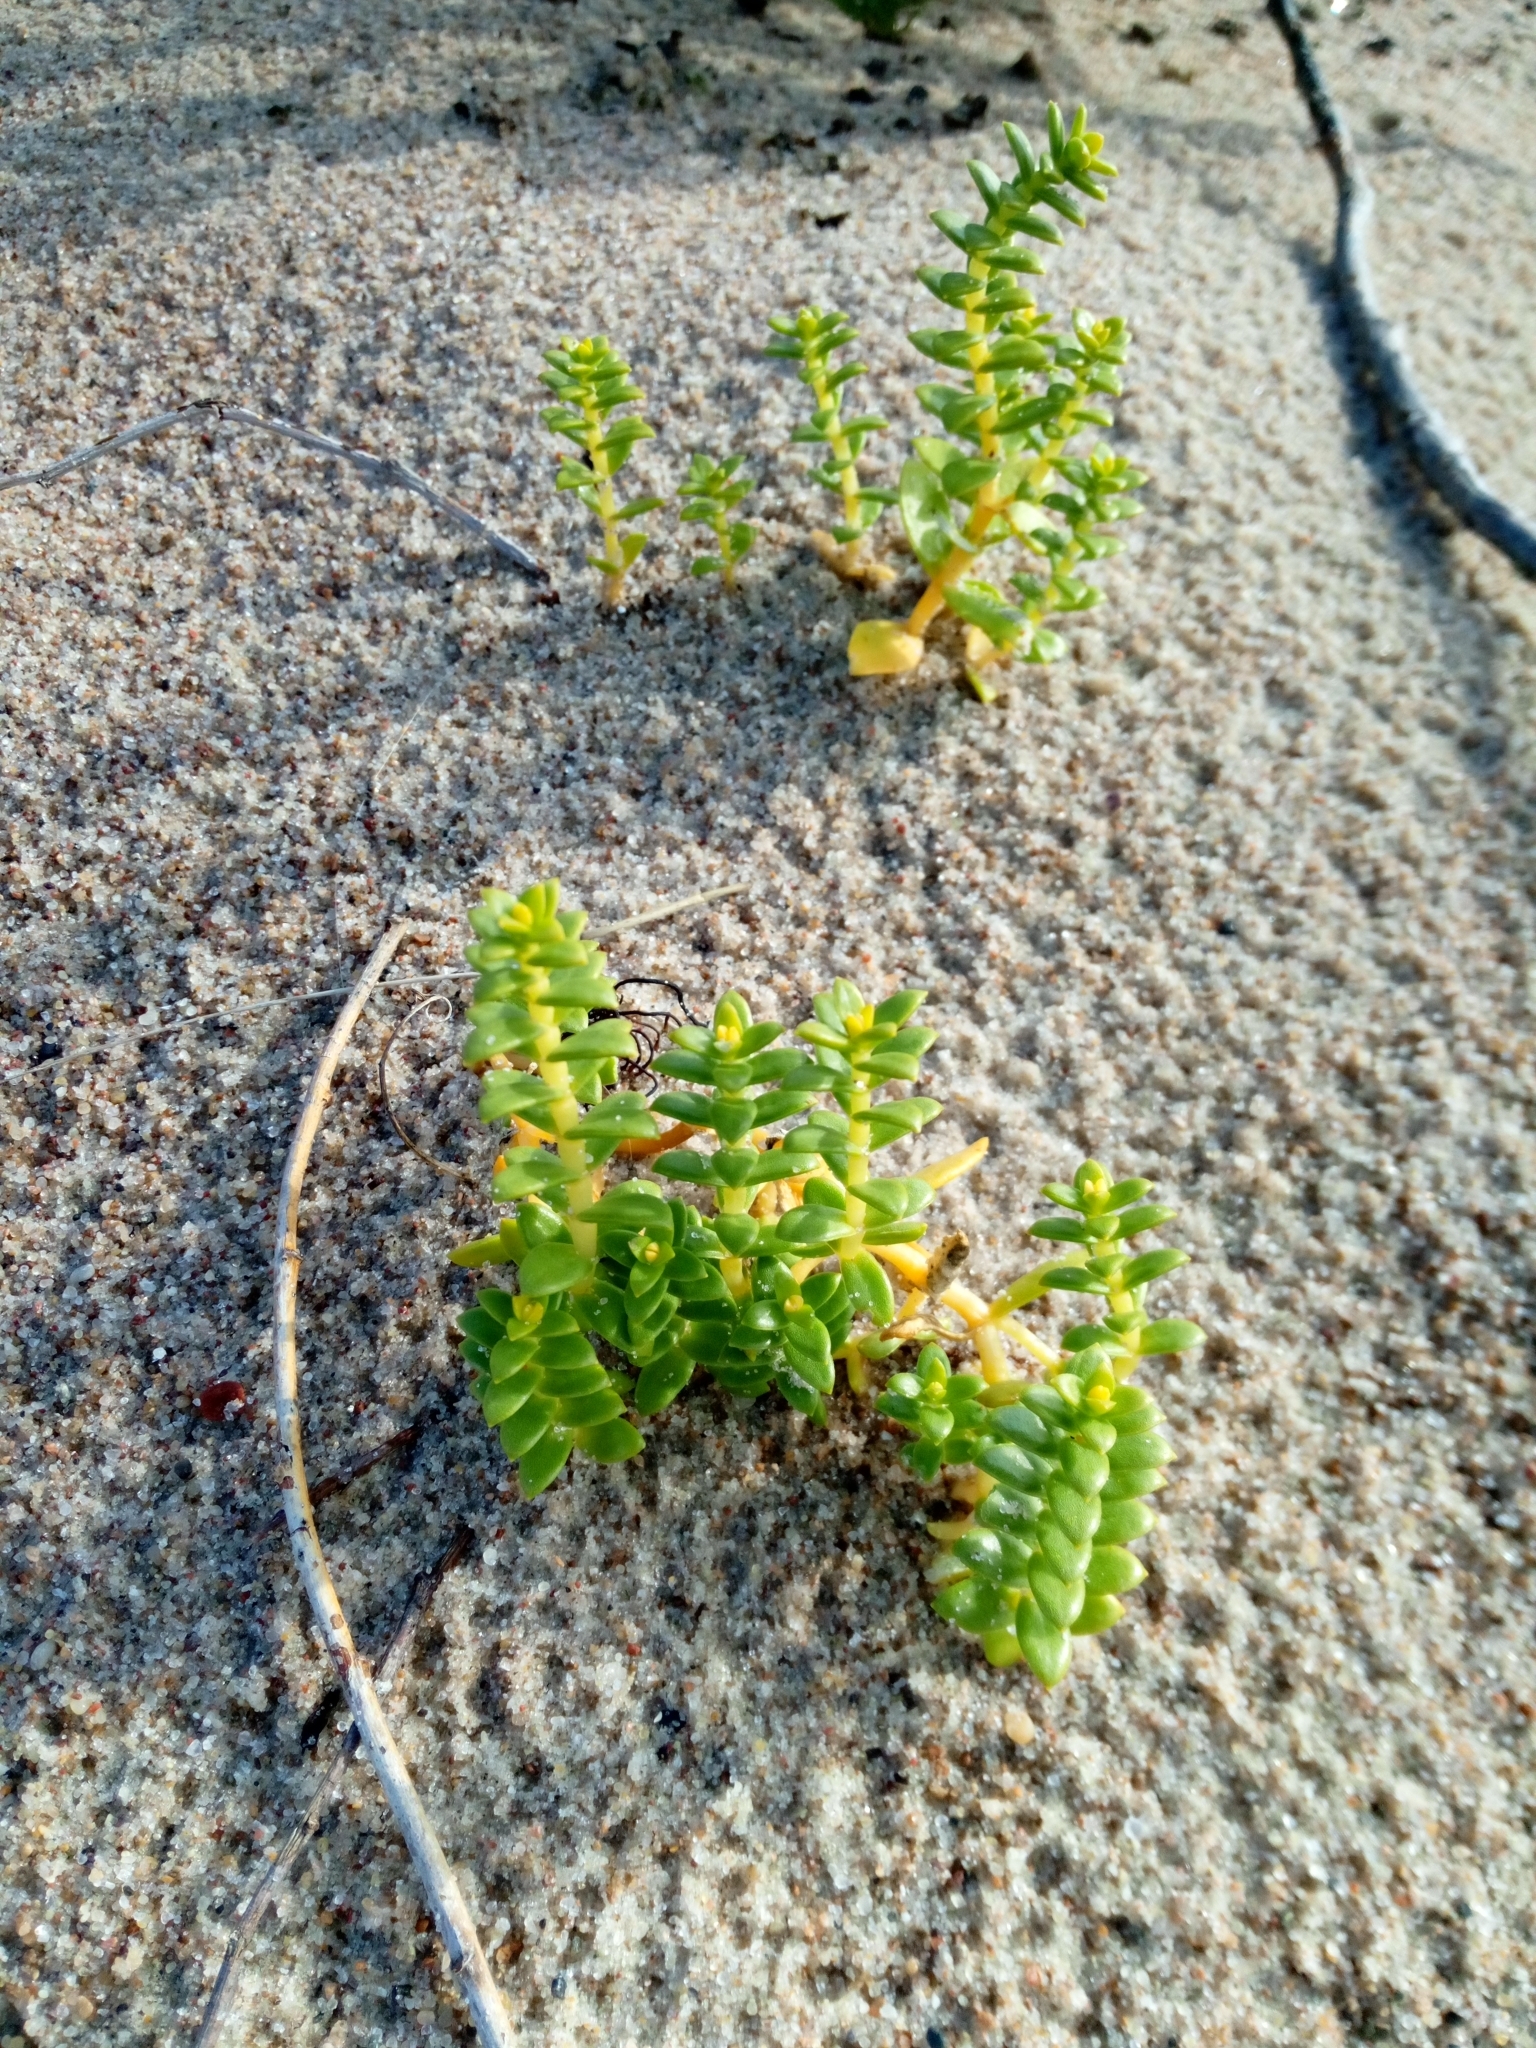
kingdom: Plantae
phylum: Tracheophyta
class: Magnoliopsida
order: Caryophyllales
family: Caryophyllaceae
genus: Honckenya
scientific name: Honckenya peploides
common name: Sea sandwort
